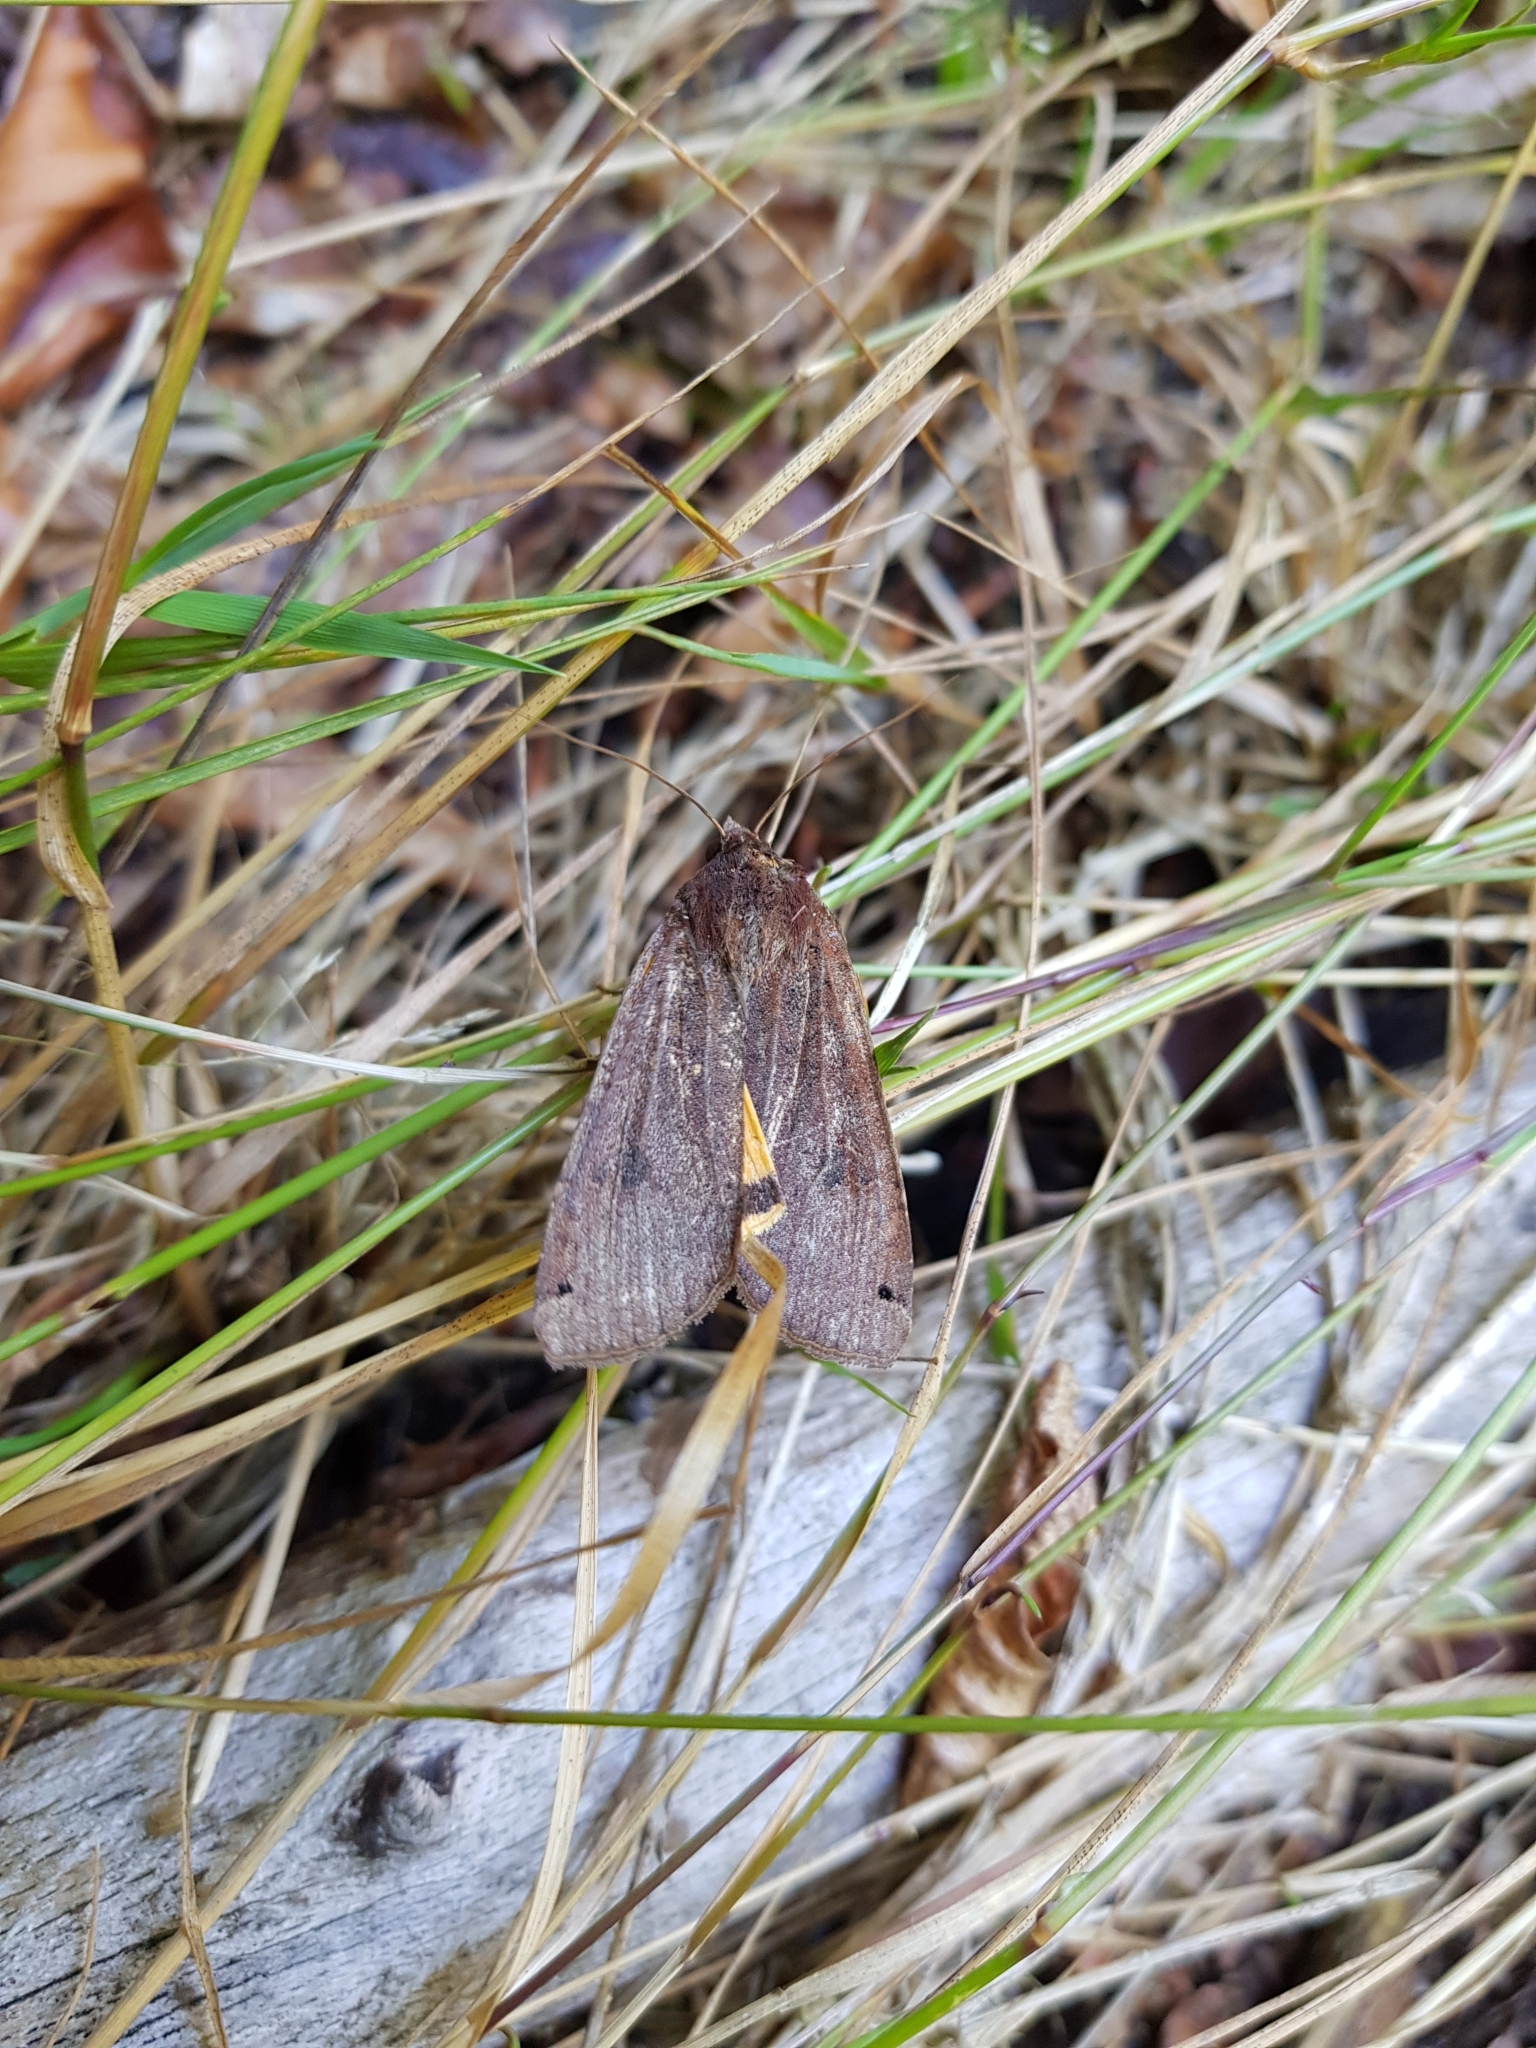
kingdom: Animalia
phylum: Arthropoda
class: Insecta
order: Lepidoptera
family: Noctuidae
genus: Noctua
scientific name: Noctua pronuba
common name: Large yellow underwing
